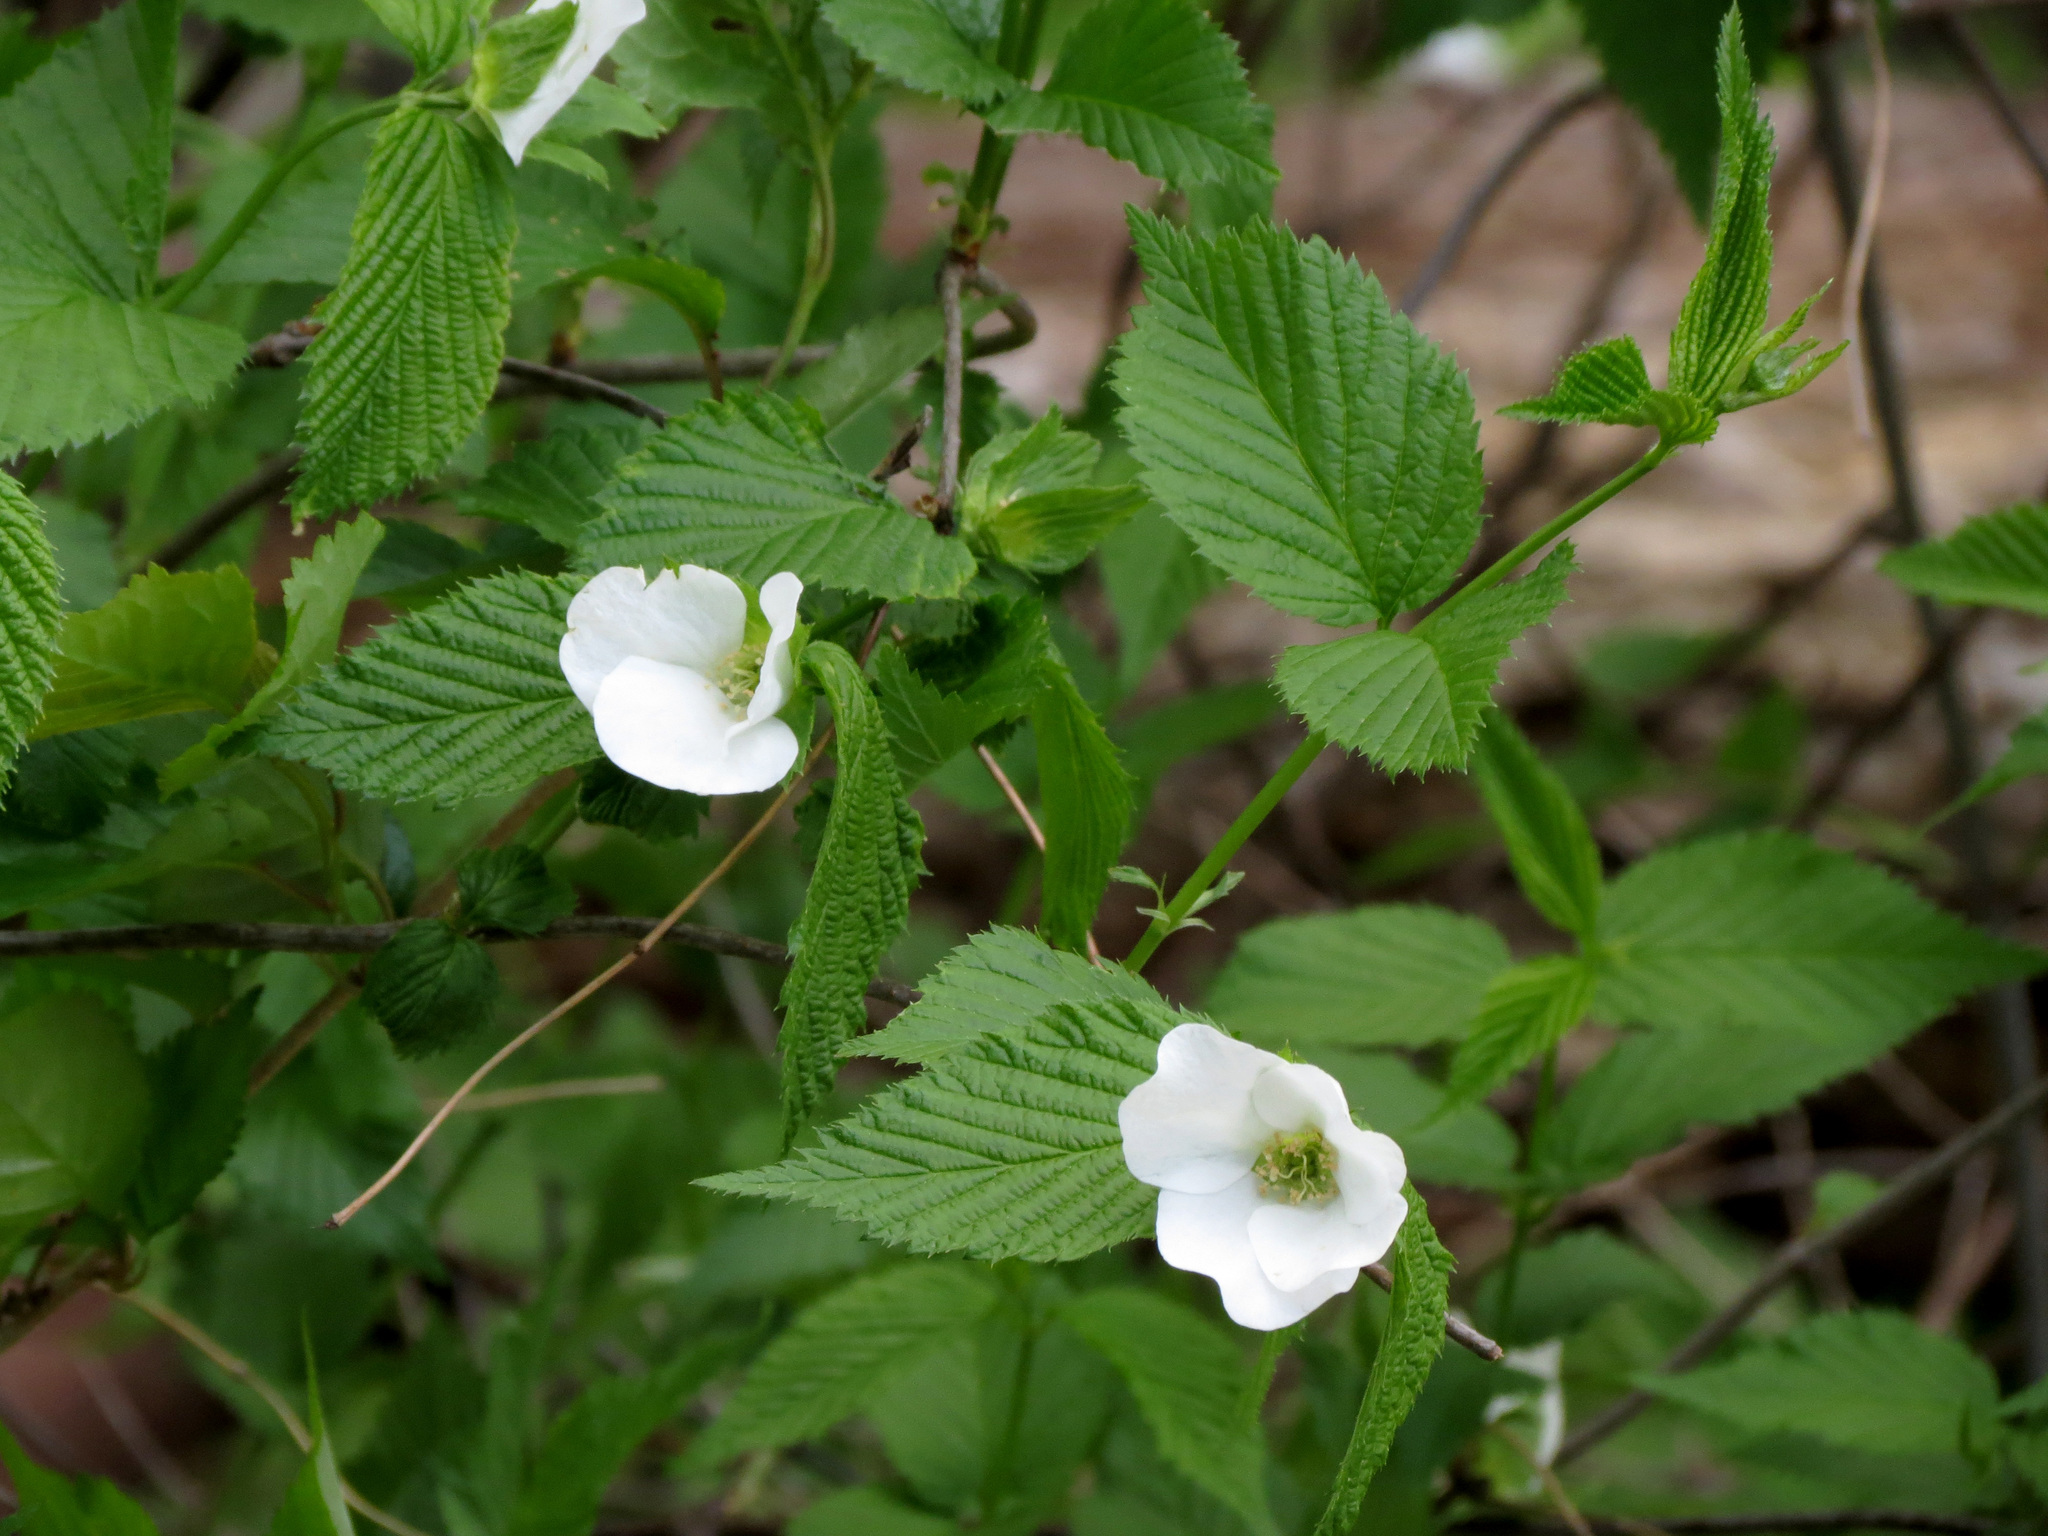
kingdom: Plantae
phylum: Tracheophyta
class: Magnoliopsida
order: Rosales
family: Rosaceae
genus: Rhodotypos
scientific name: Rhodotypos scandens
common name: Jetbead
